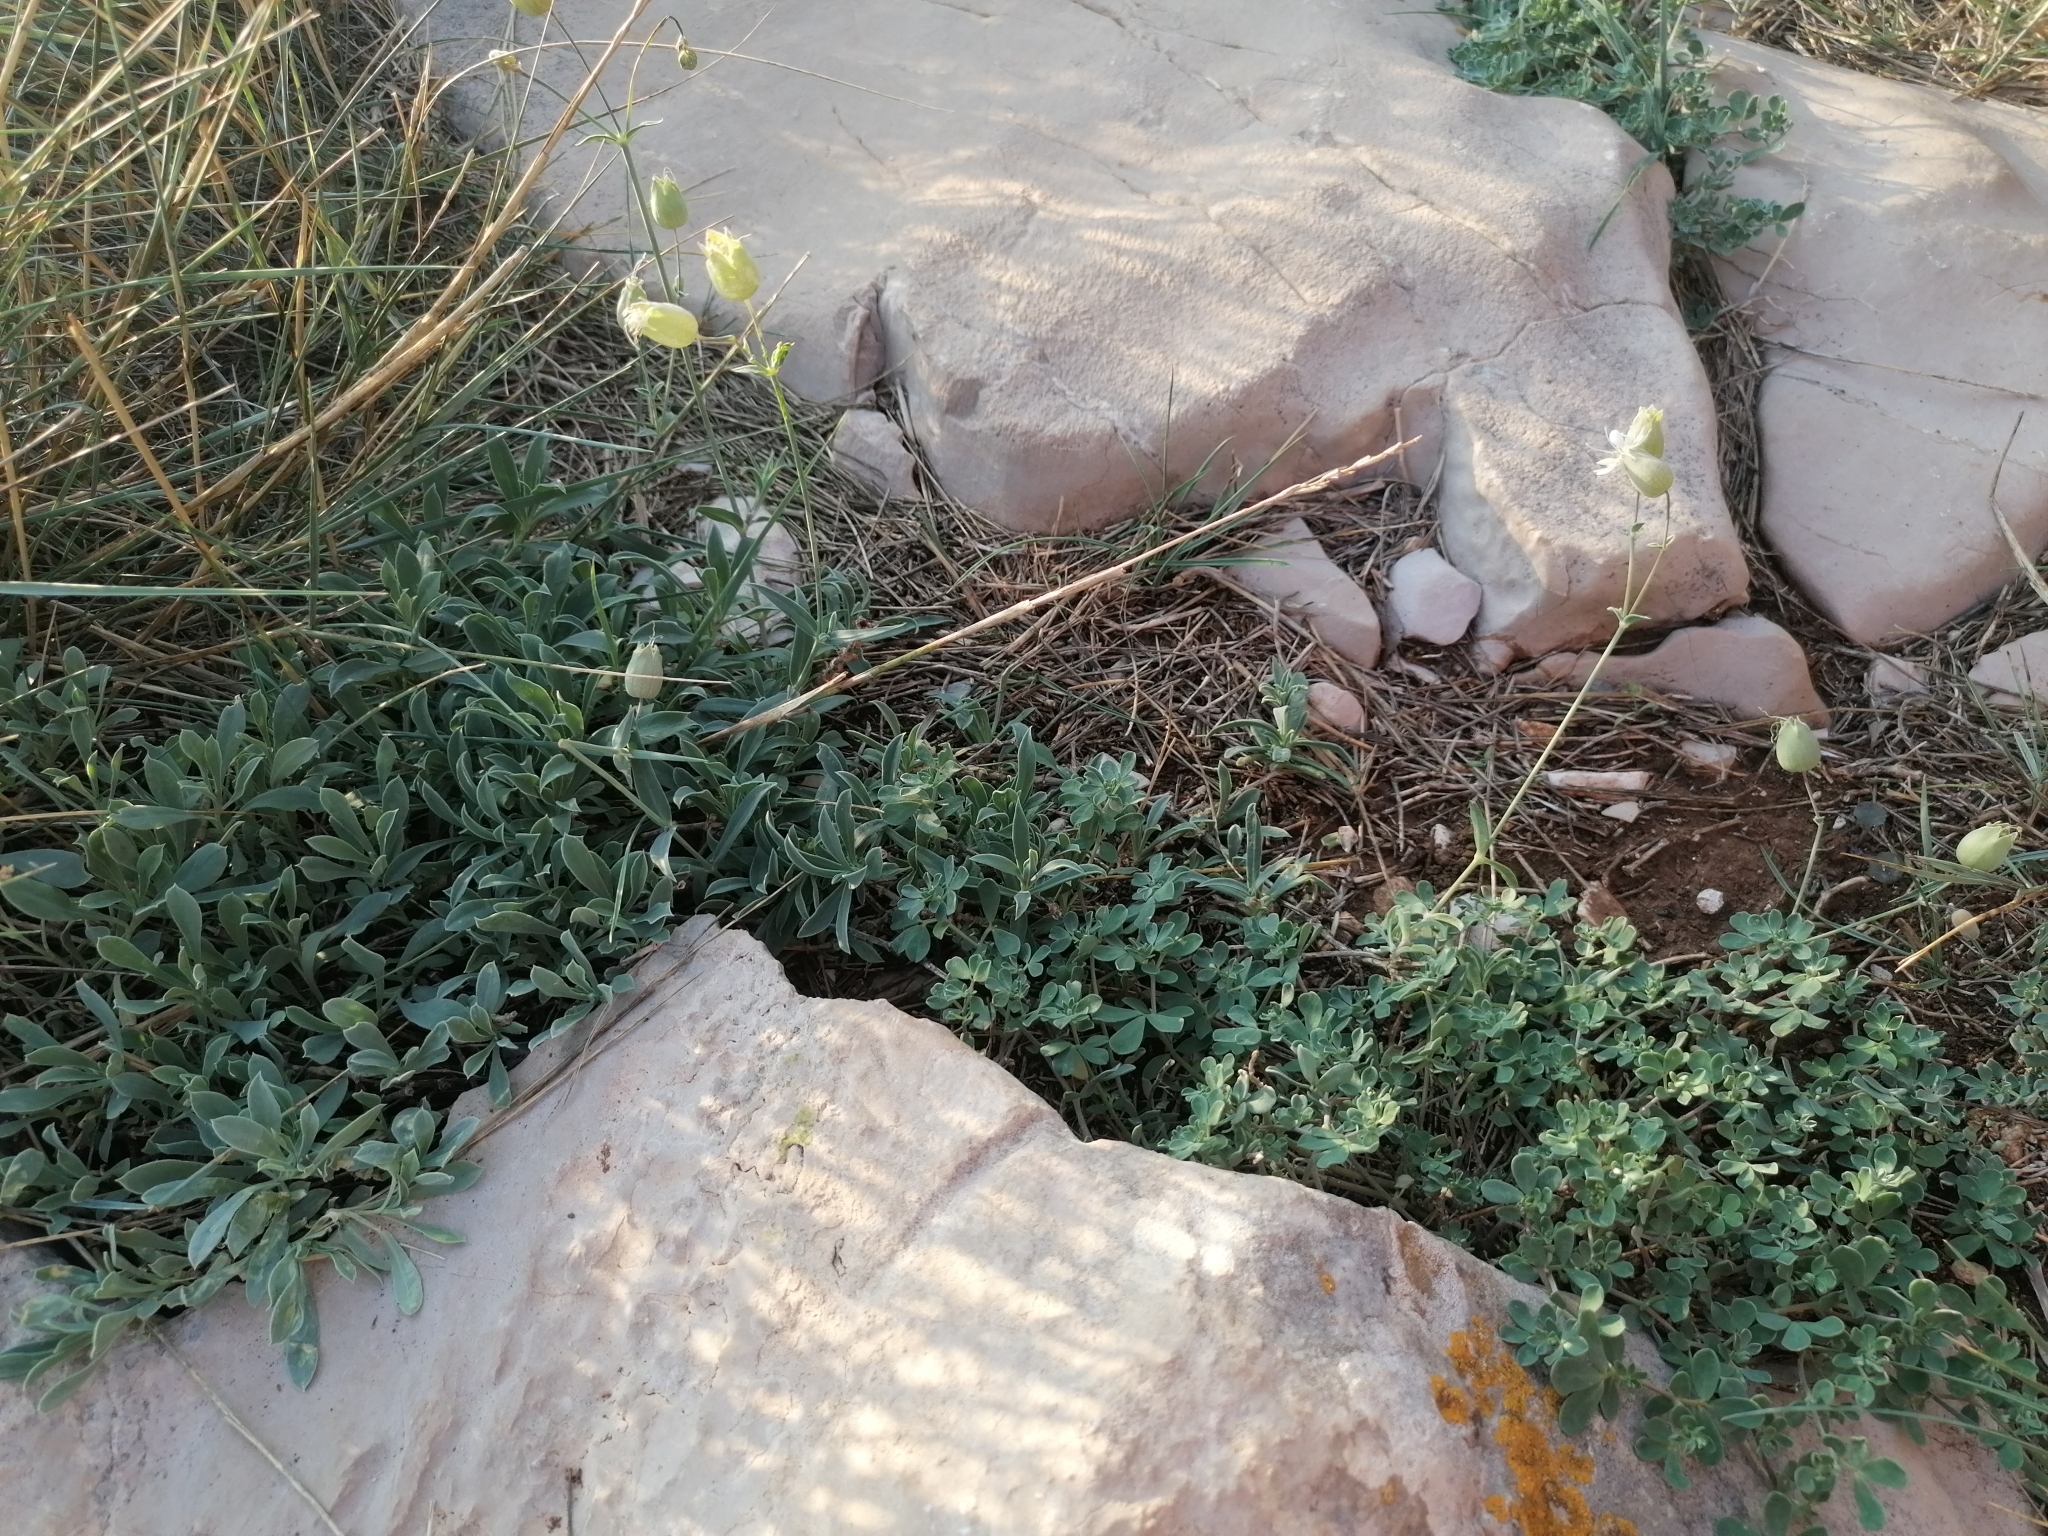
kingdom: Plantae
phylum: Tracheophyta
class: Magnoliopsida
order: Caryophyllales
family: Caryophyllaceae
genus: Silene
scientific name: Silene vulgaris
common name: Bladder campion
